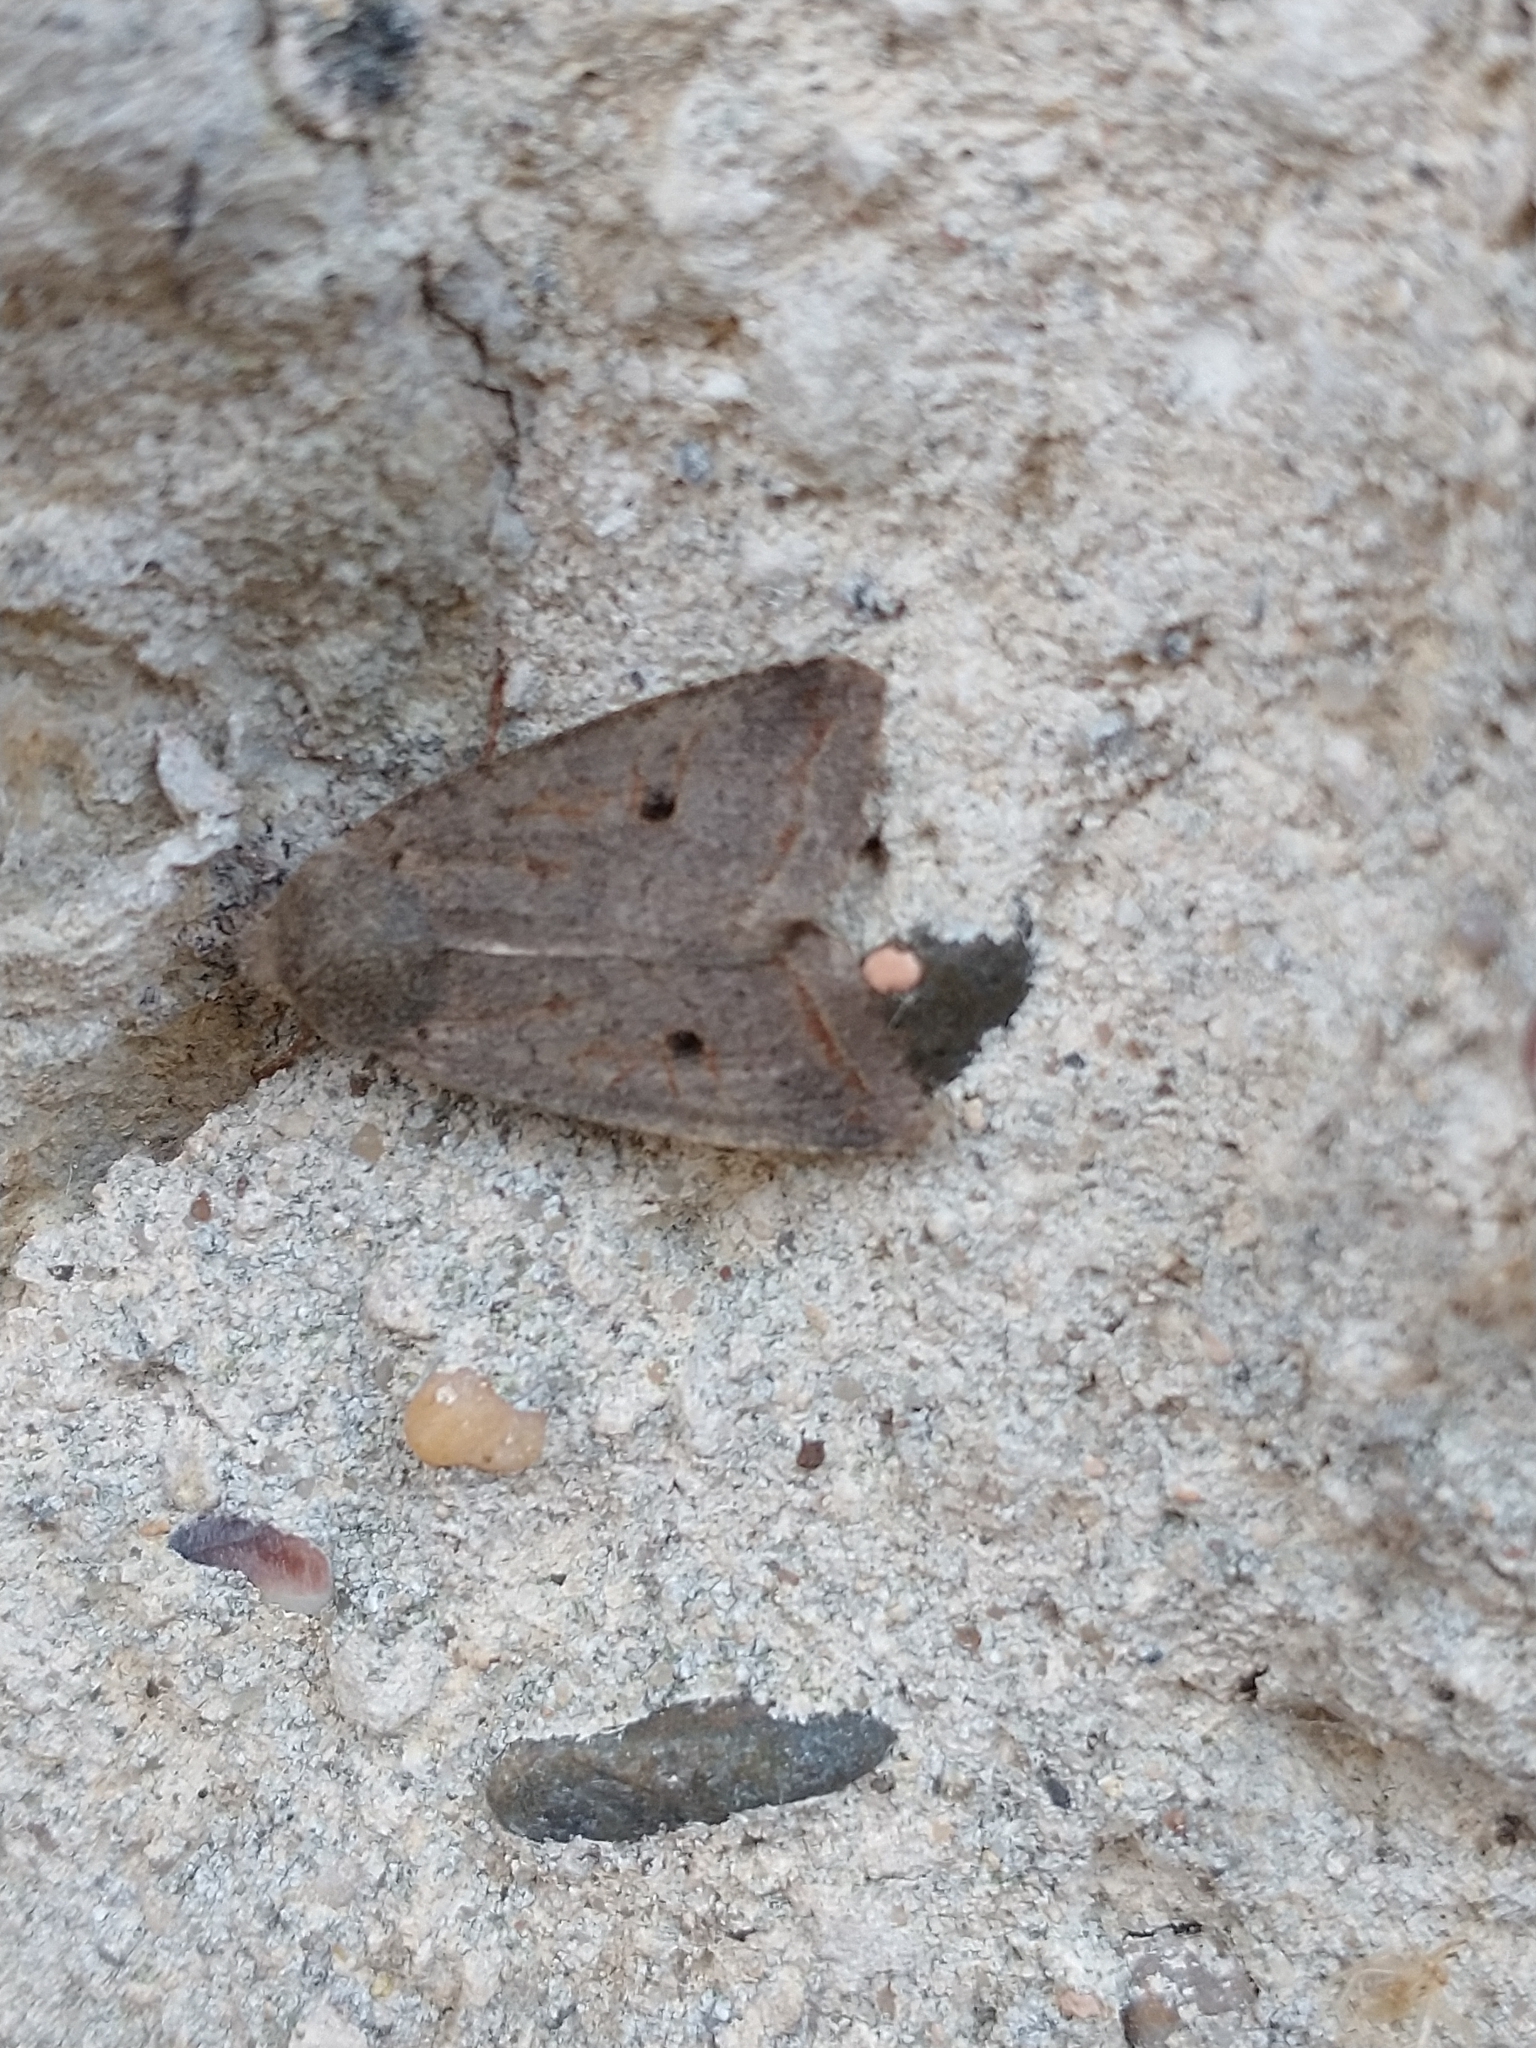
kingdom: Animalia
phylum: Arthropoda
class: Insecta
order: Lepidoptera
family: Noctuidae
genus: Agrochola
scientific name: Agrochola lota
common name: Red-line quaker
